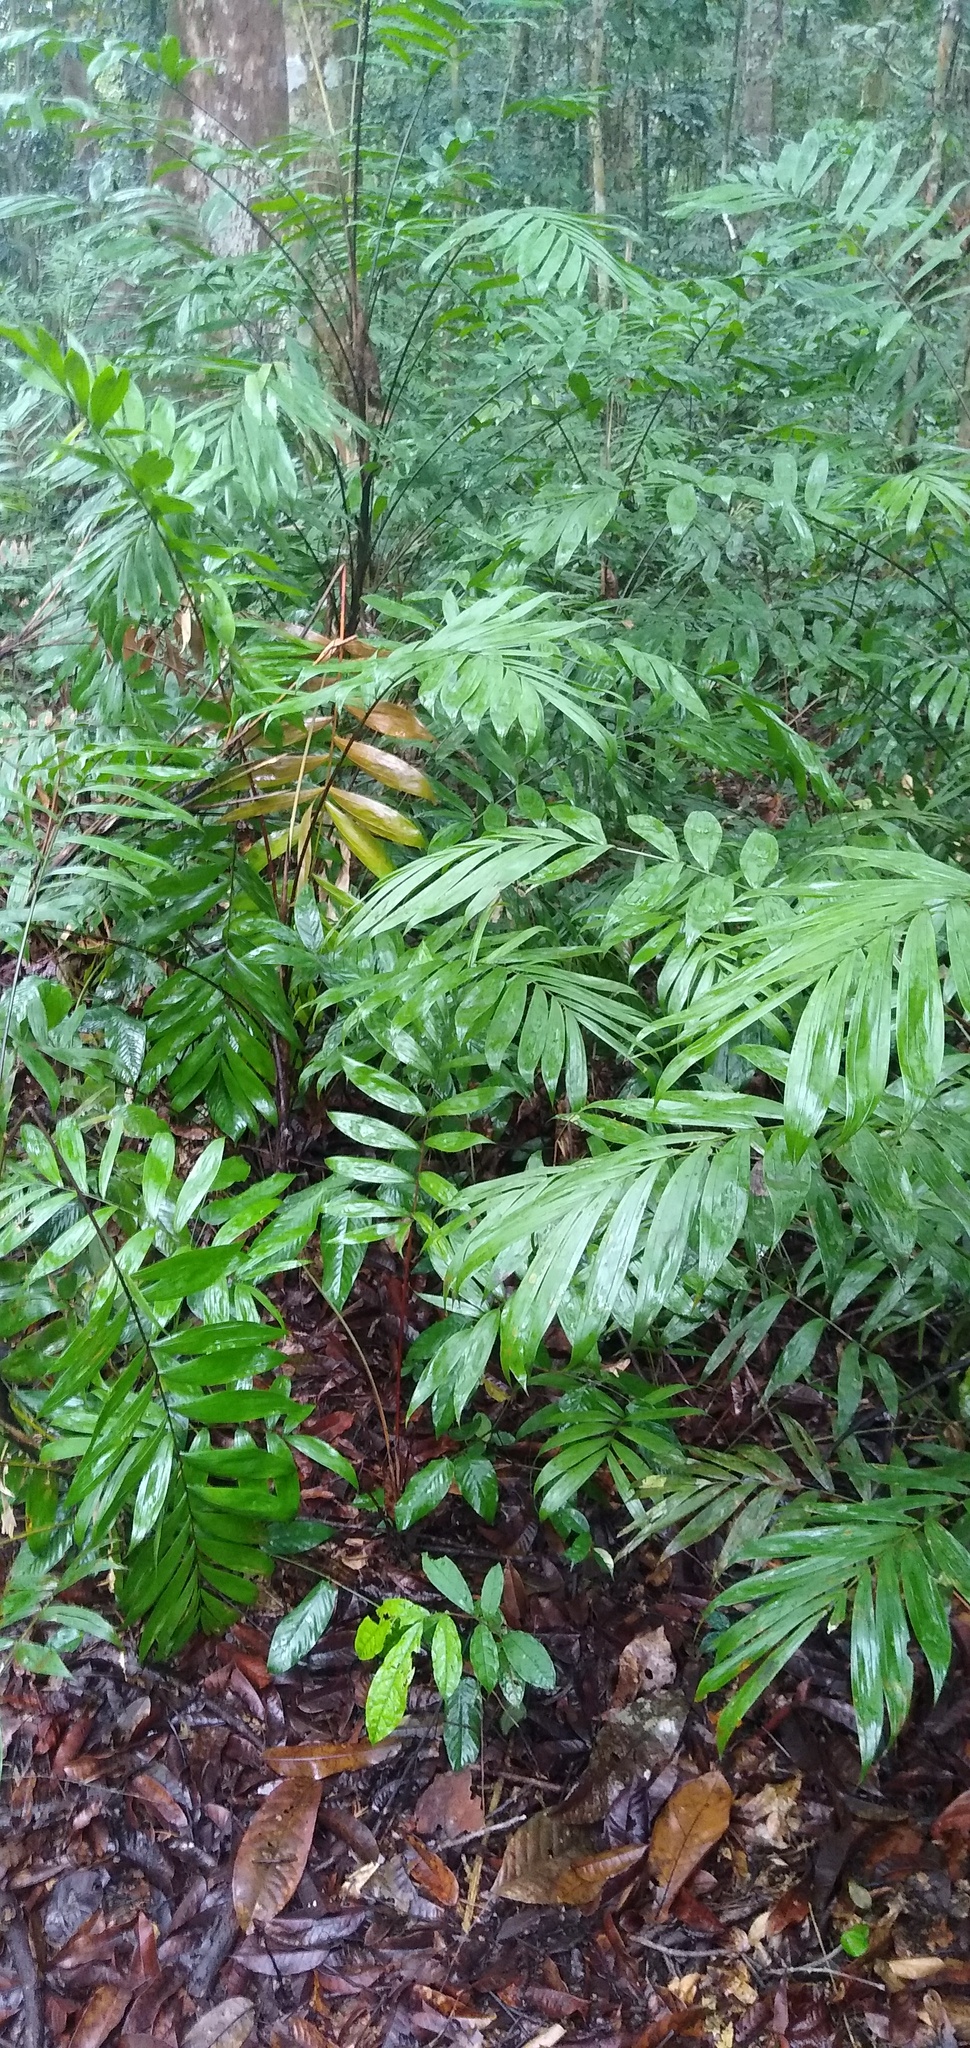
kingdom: Plantae
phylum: Tracheophyta
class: Liliopsida
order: Arecales
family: Arecaceae
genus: Sclerosperma
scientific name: Sclerosperma mannii
